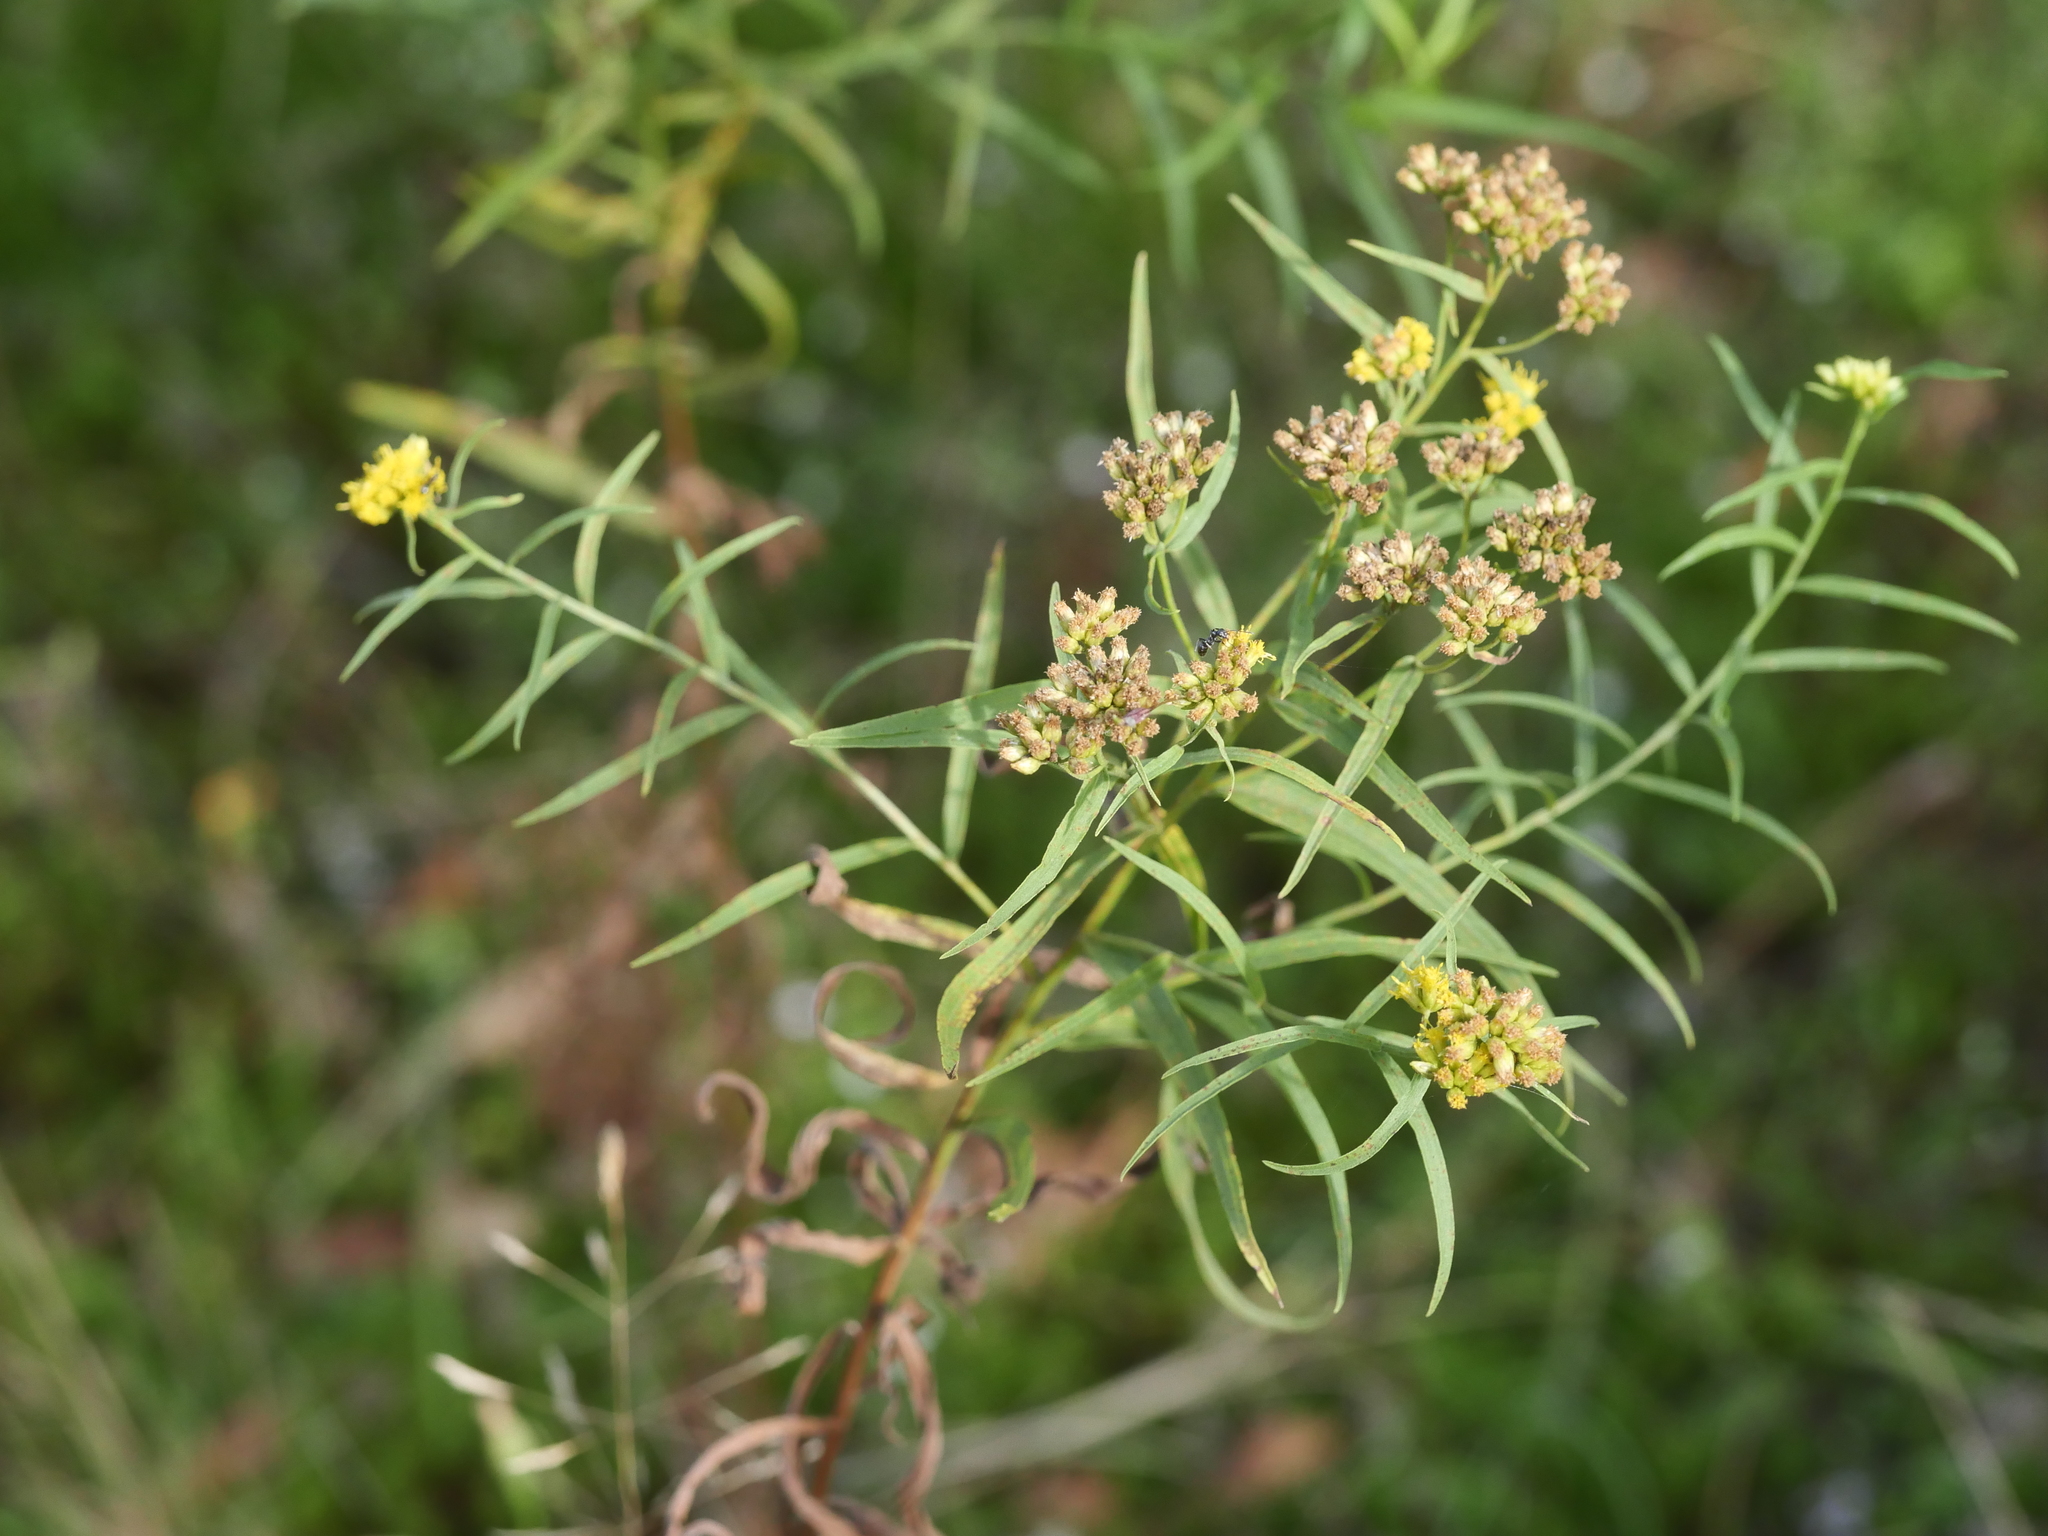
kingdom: Plantae
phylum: Tracheophyta
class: Magnoliopsida
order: Asterales
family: Asteraceae
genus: Euthamia
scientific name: Euthamia graminifolia
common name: Common goldentop
